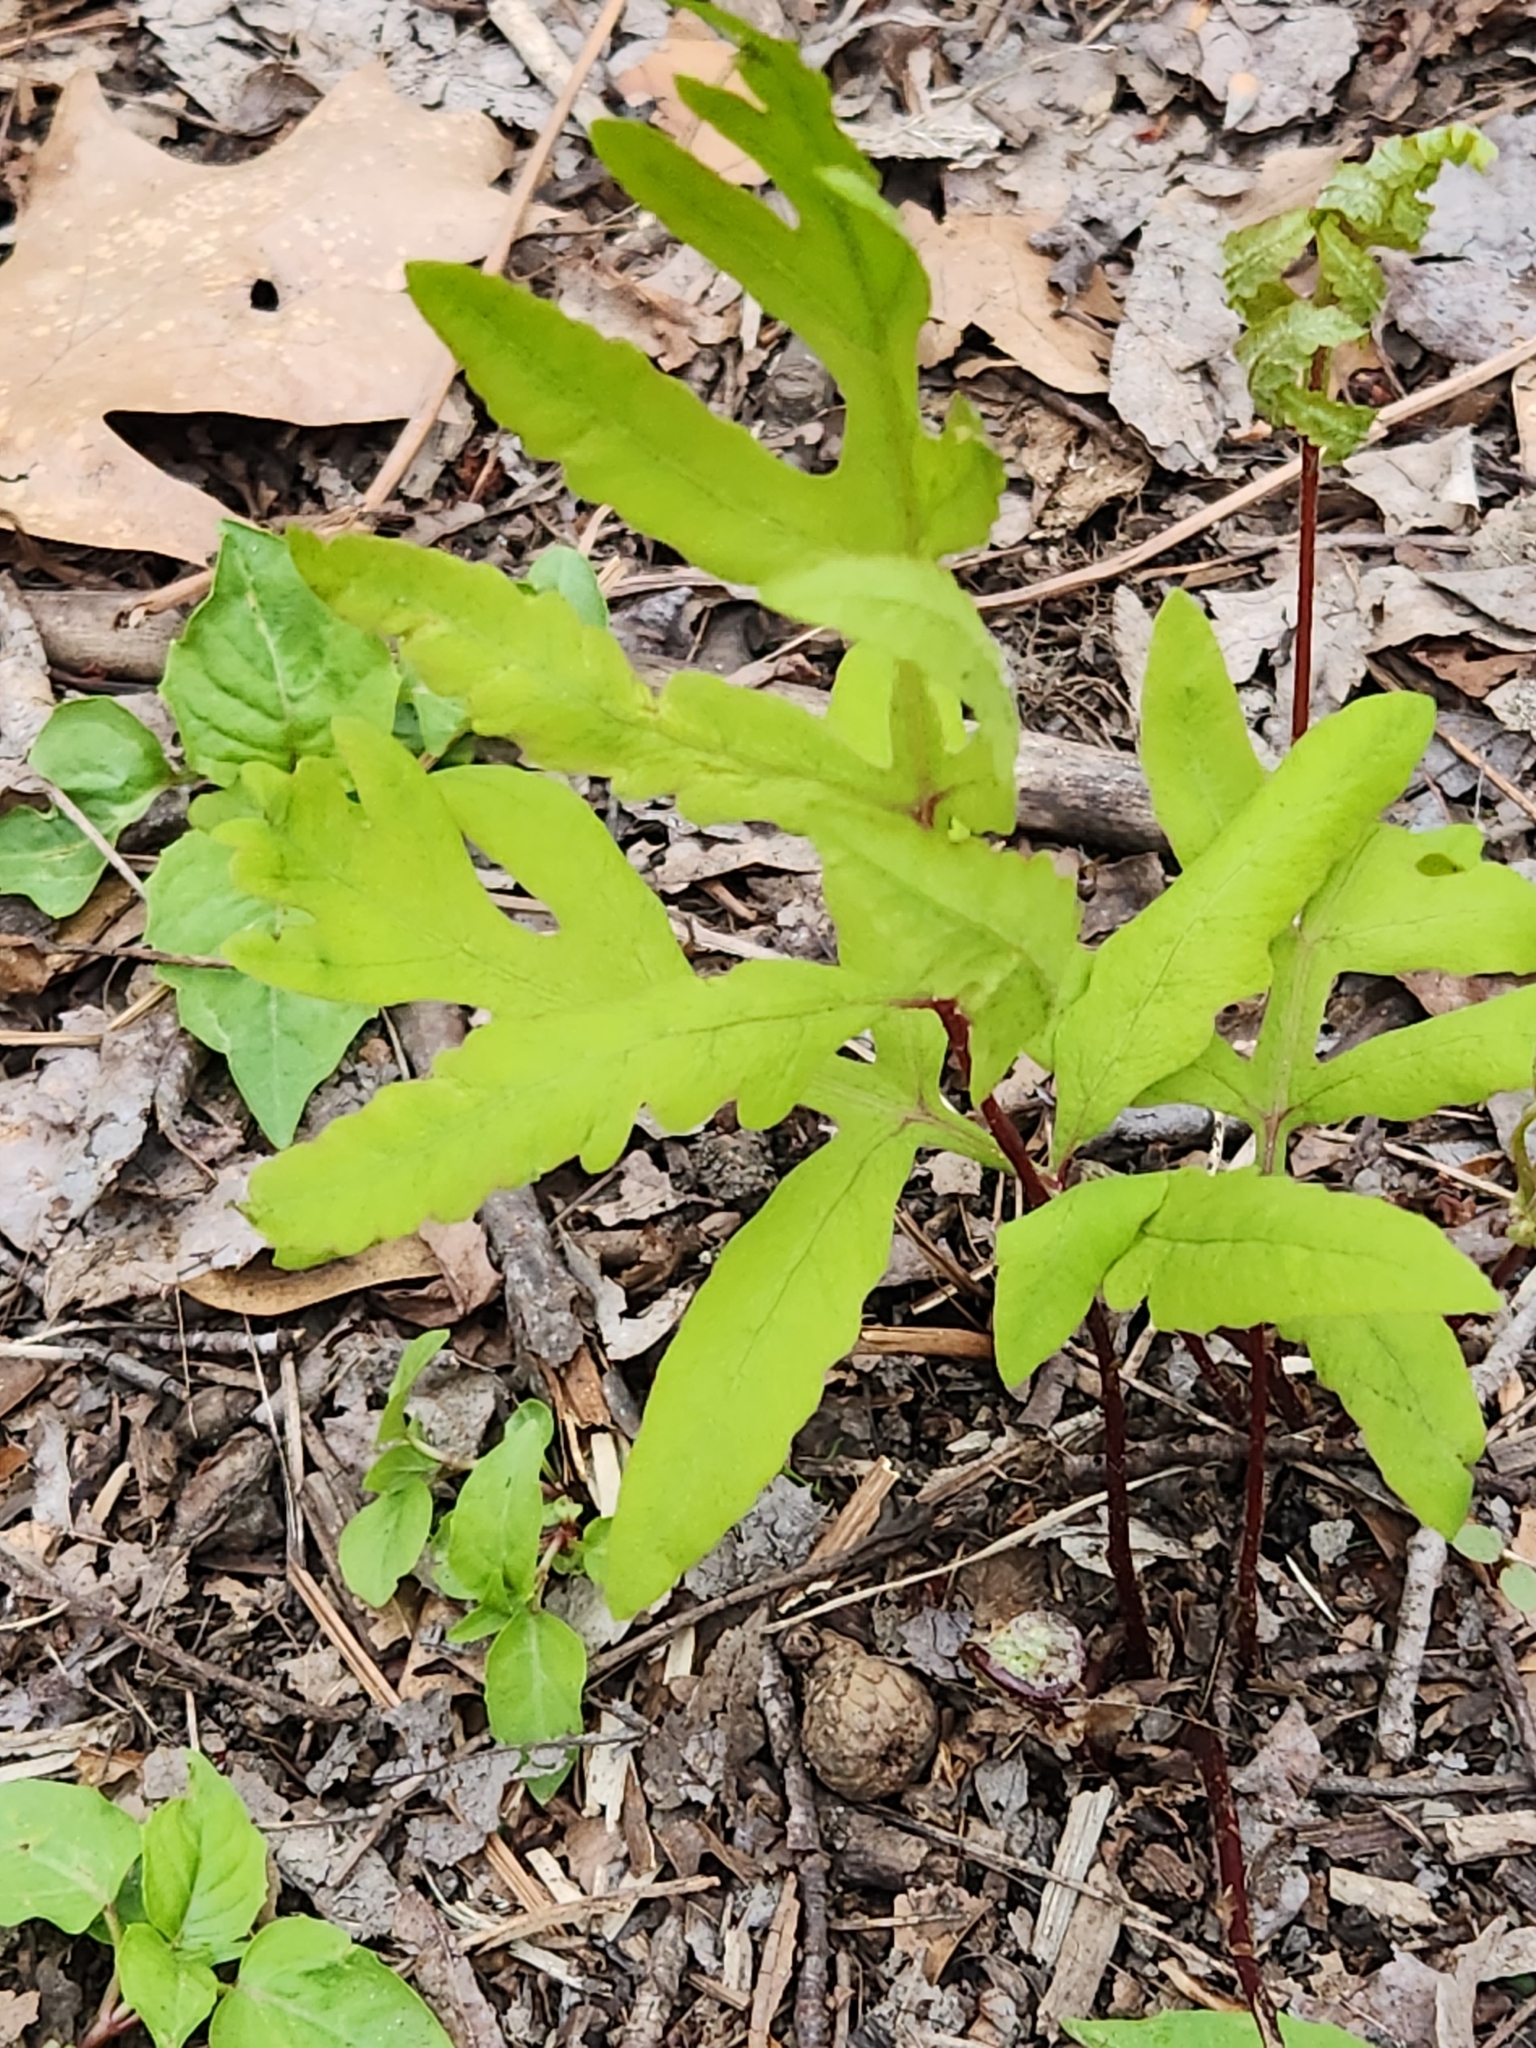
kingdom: Plantae
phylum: Tracheophyta
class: Polypodiopsida
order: Polypodiales
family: Onocleaceae
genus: Onoclea
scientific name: Onoclea sensibilis
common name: Sensitive fern
